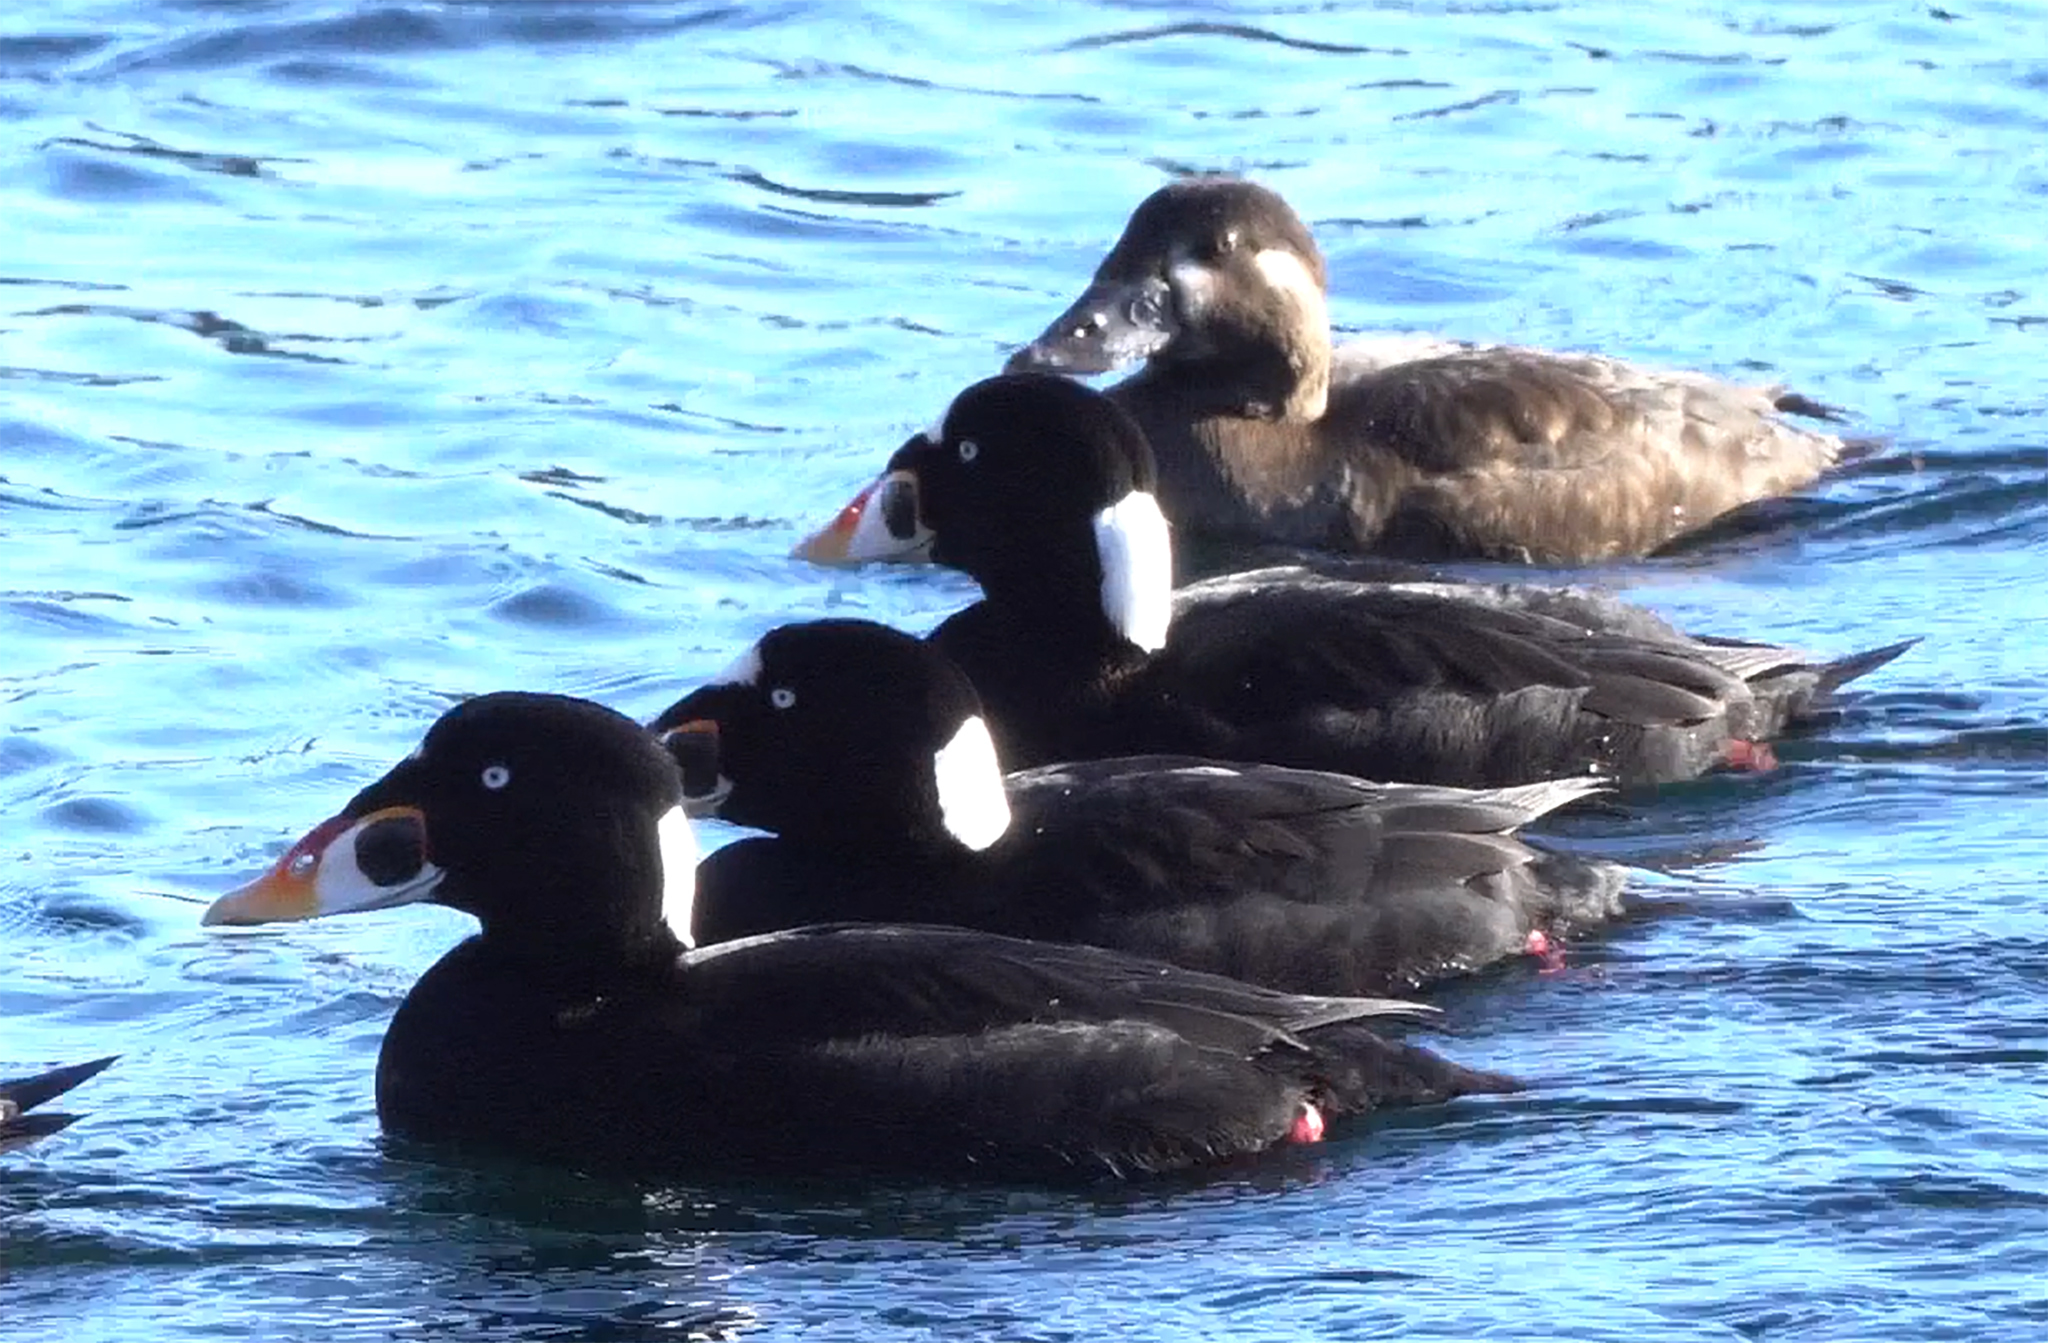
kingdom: Animalia
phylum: Chordata
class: Aves
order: Anseriformes
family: Anatidae
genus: Melanitta
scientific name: Melanitta perspicillata
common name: Surf scoter
